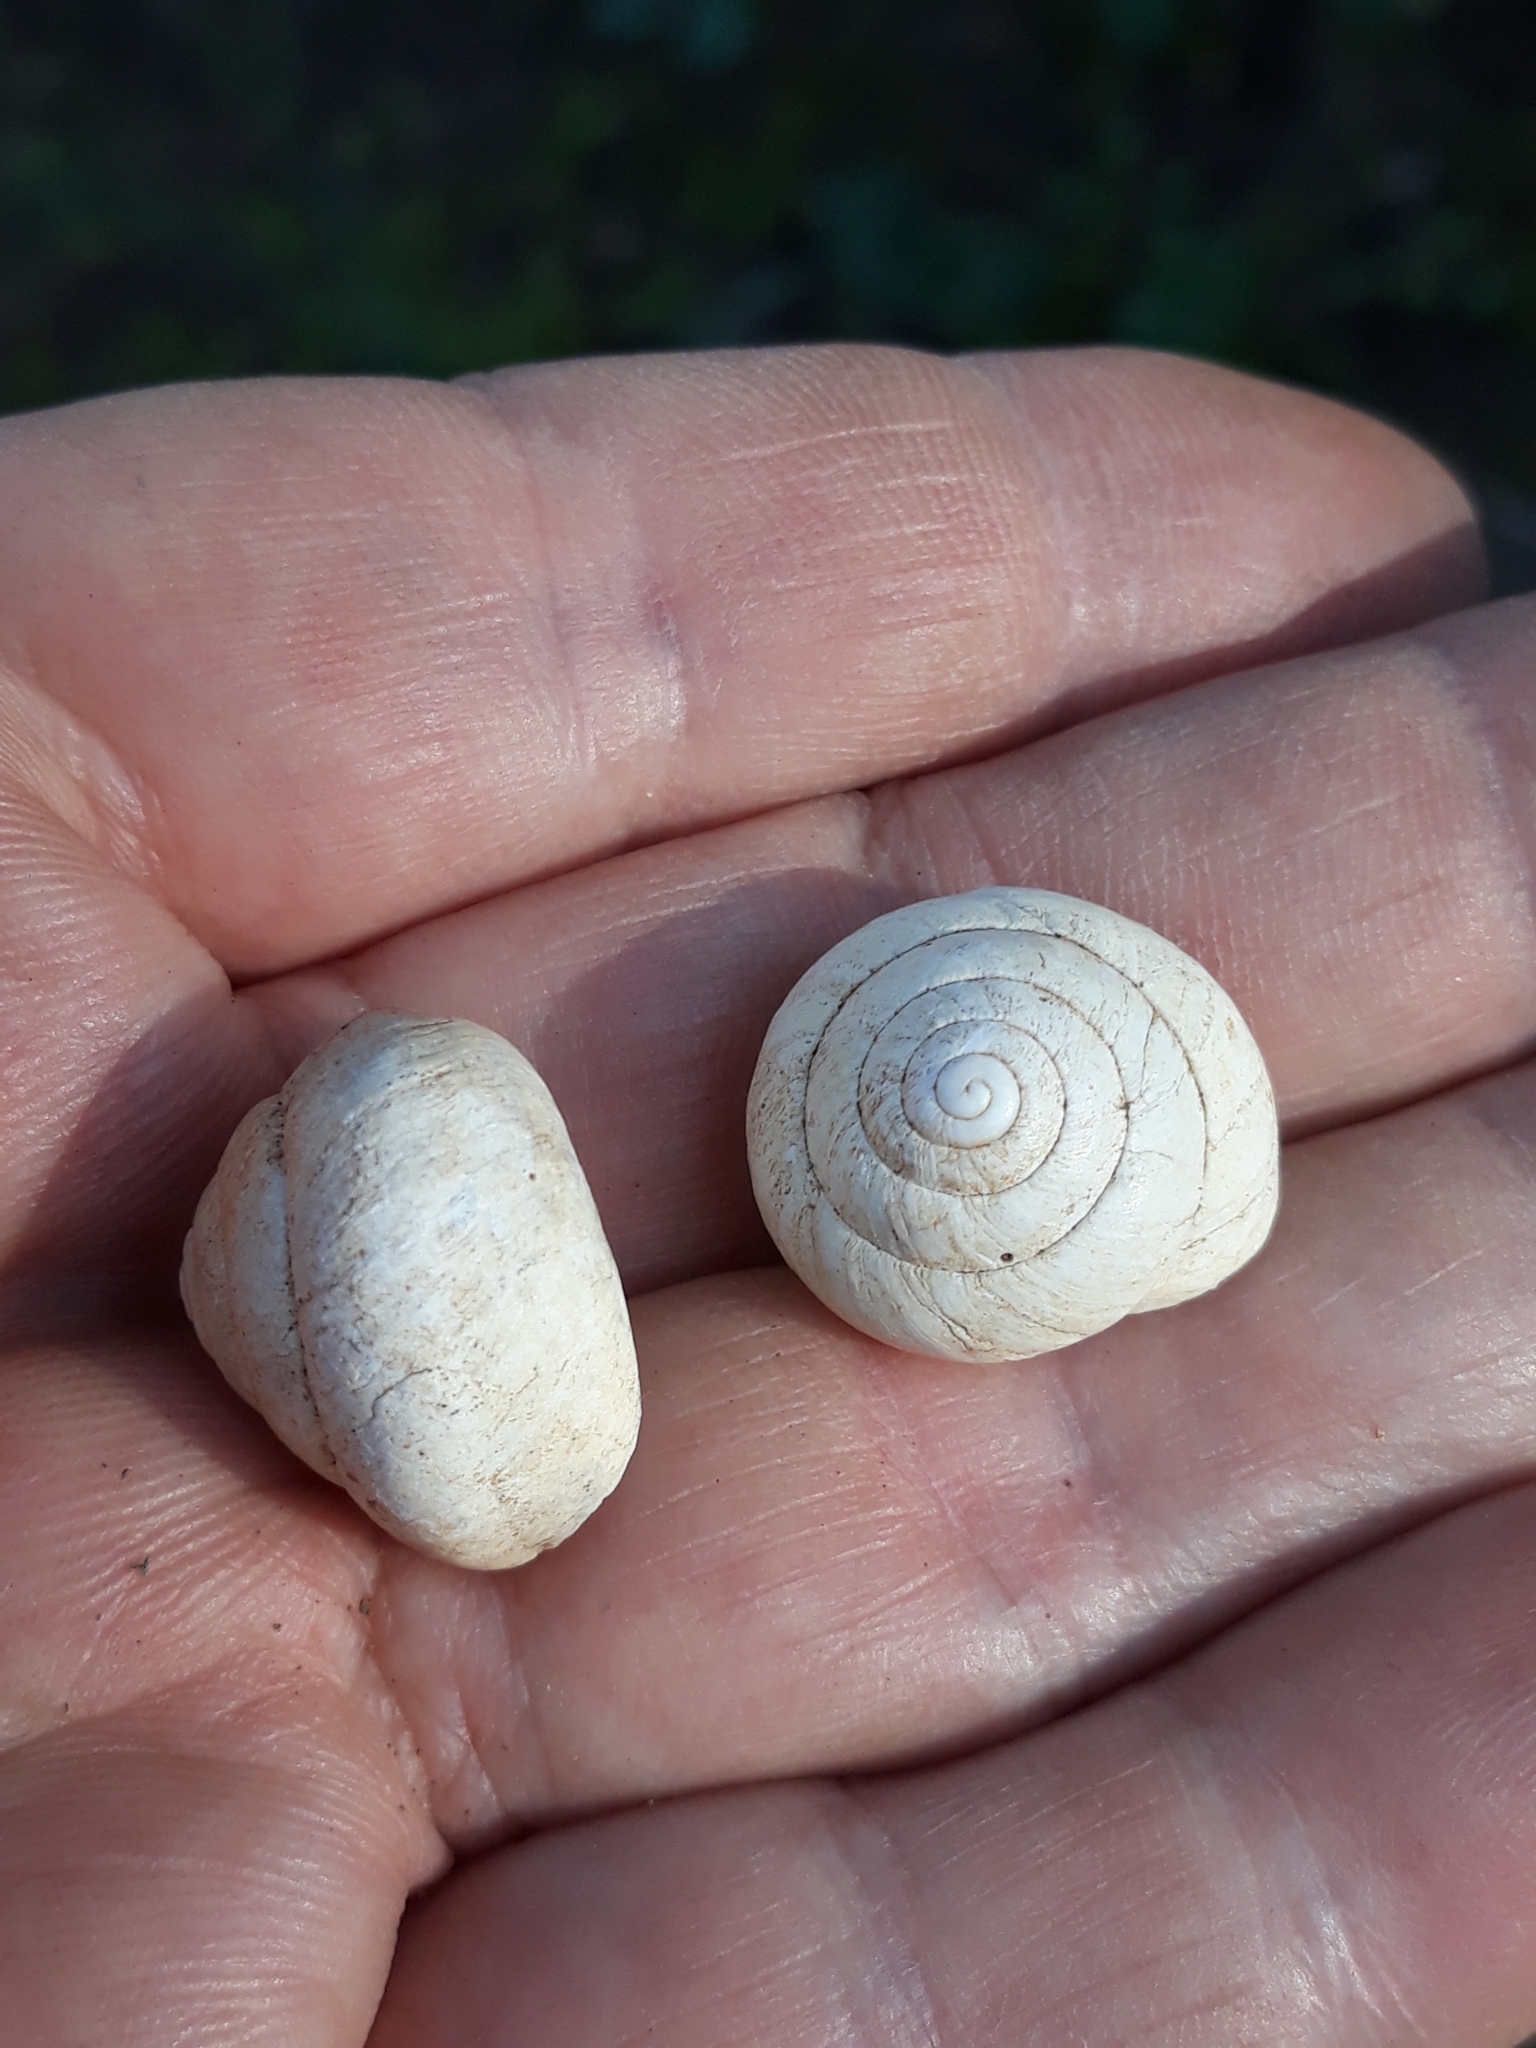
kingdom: Animalia
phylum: Mollusca
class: Gastropoda
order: Stylommatophora
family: Sphincterochilidae
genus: Sphincterochila
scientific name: Sphincterochila candidissima
